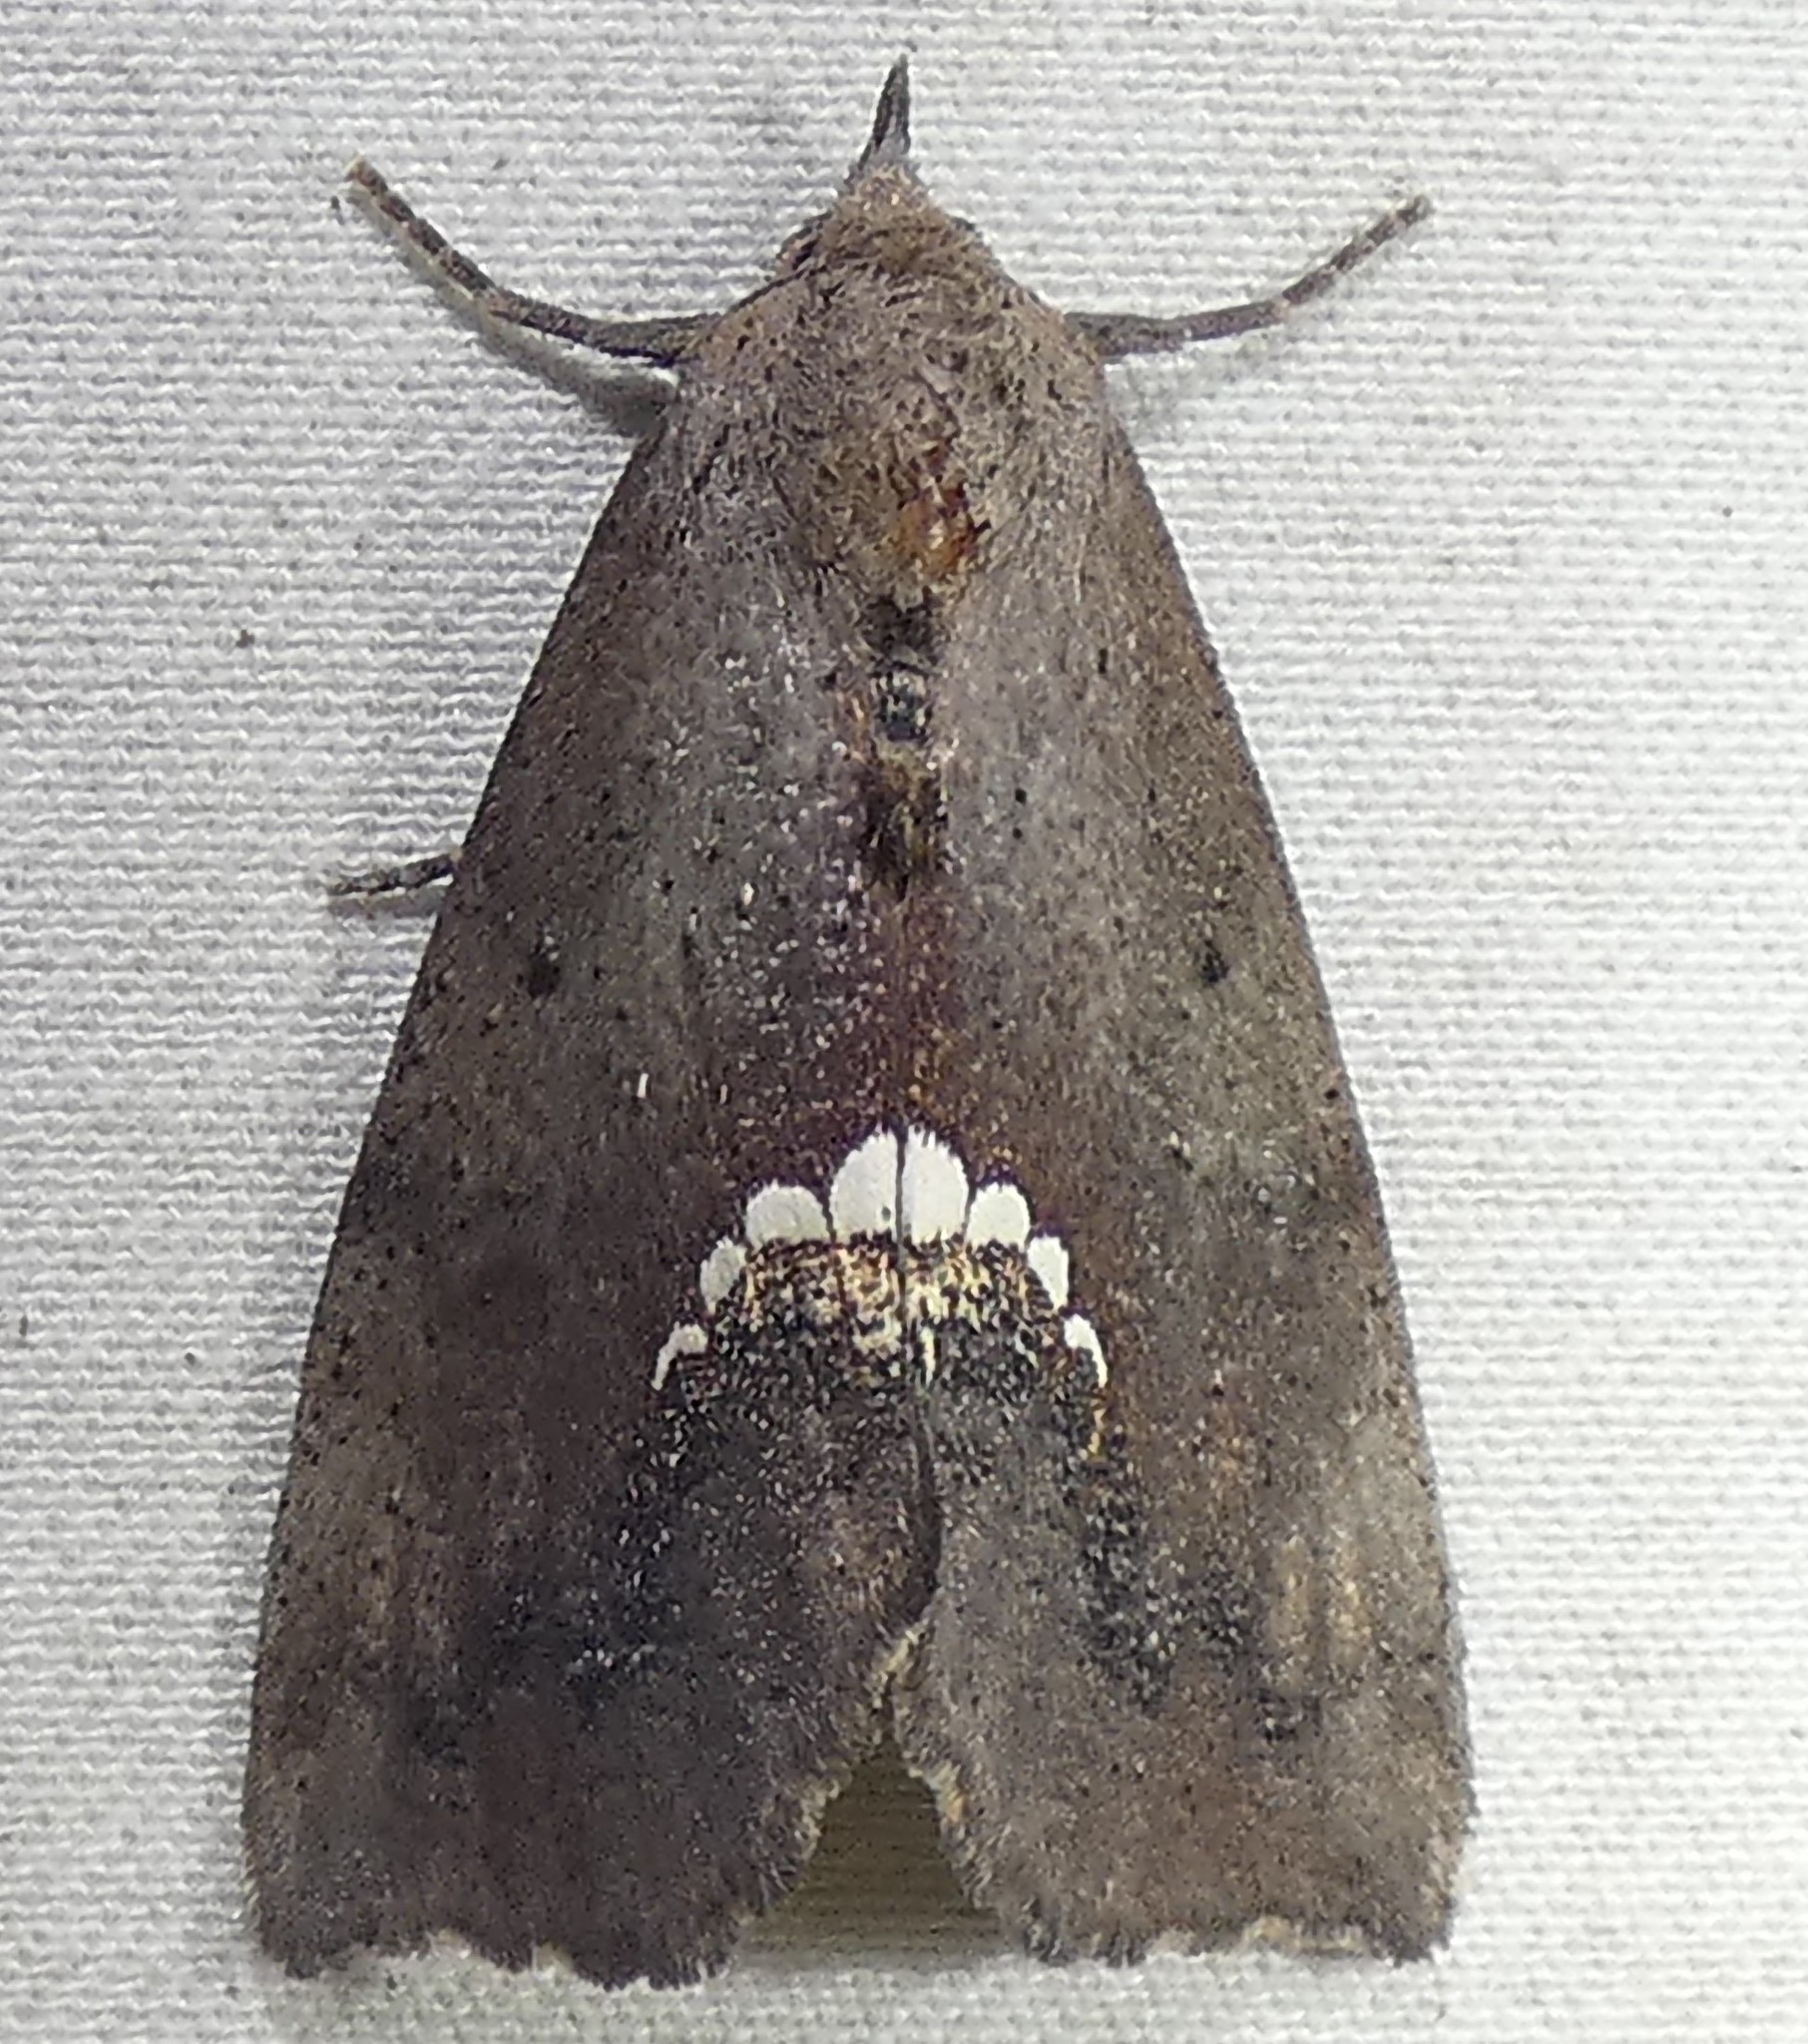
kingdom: Animalia
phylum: Arthropoda
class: Insecta
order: Lepidoptera
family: Erebidae
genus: Hypsoropha
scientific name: Hypsoropha hormos
